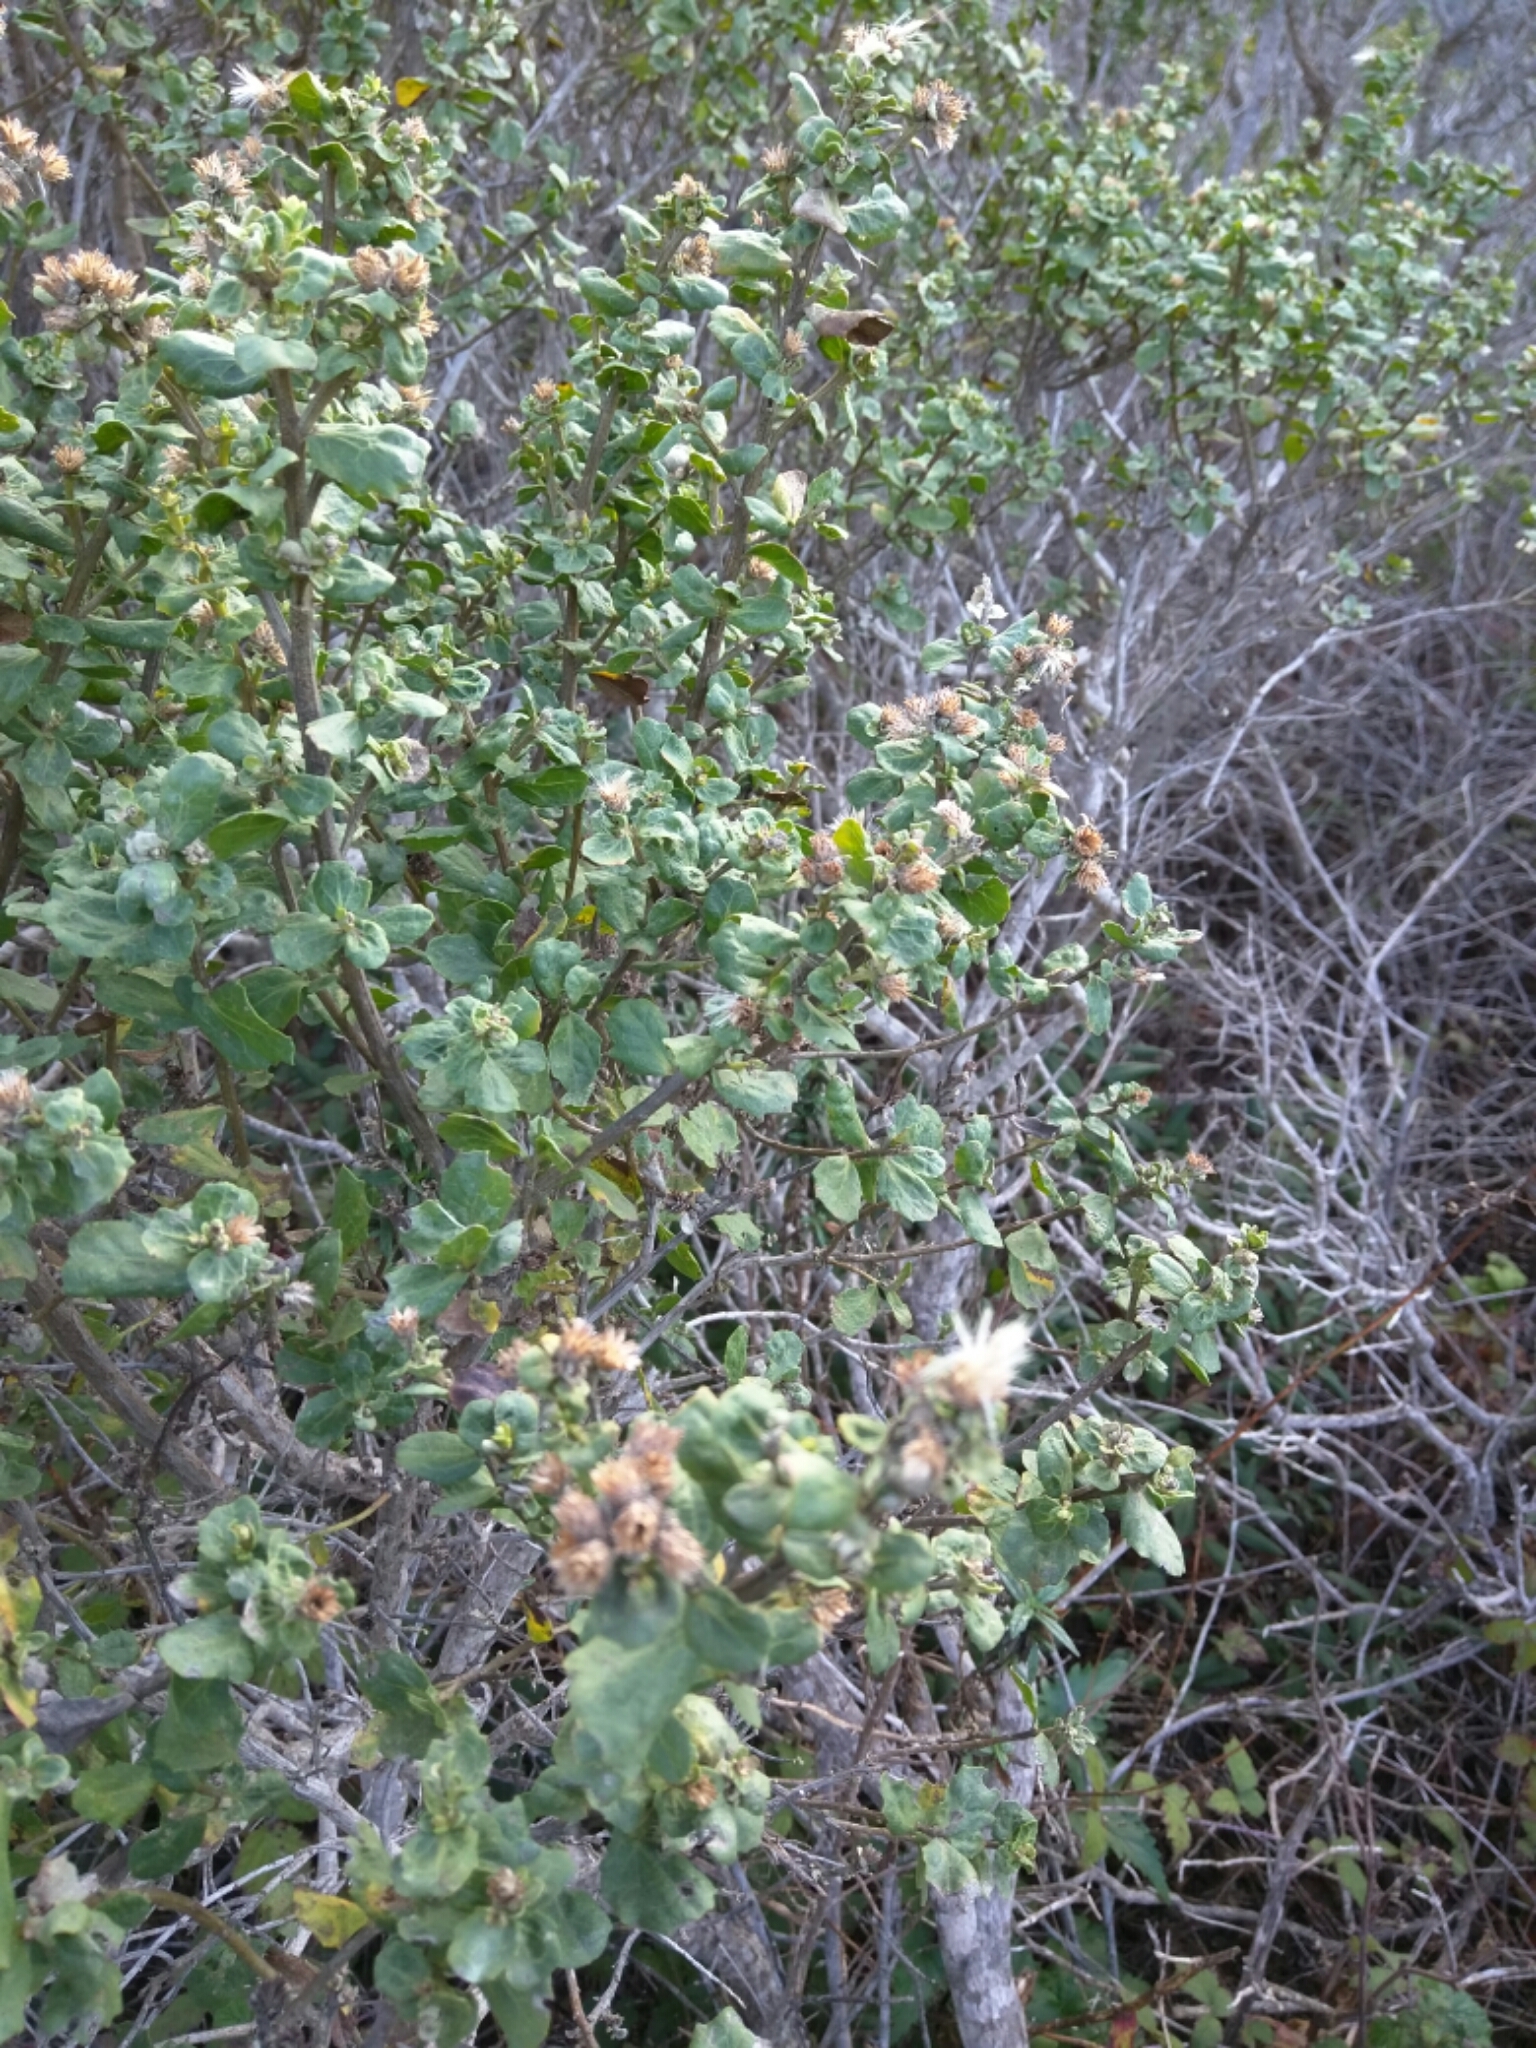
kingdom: Plantae
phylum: Tracheophyta
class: Magnoliopsida
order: Asterales
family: Asteraceae
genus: Baccharis
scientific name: Baccharis pilularis
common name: Coyotebrush
